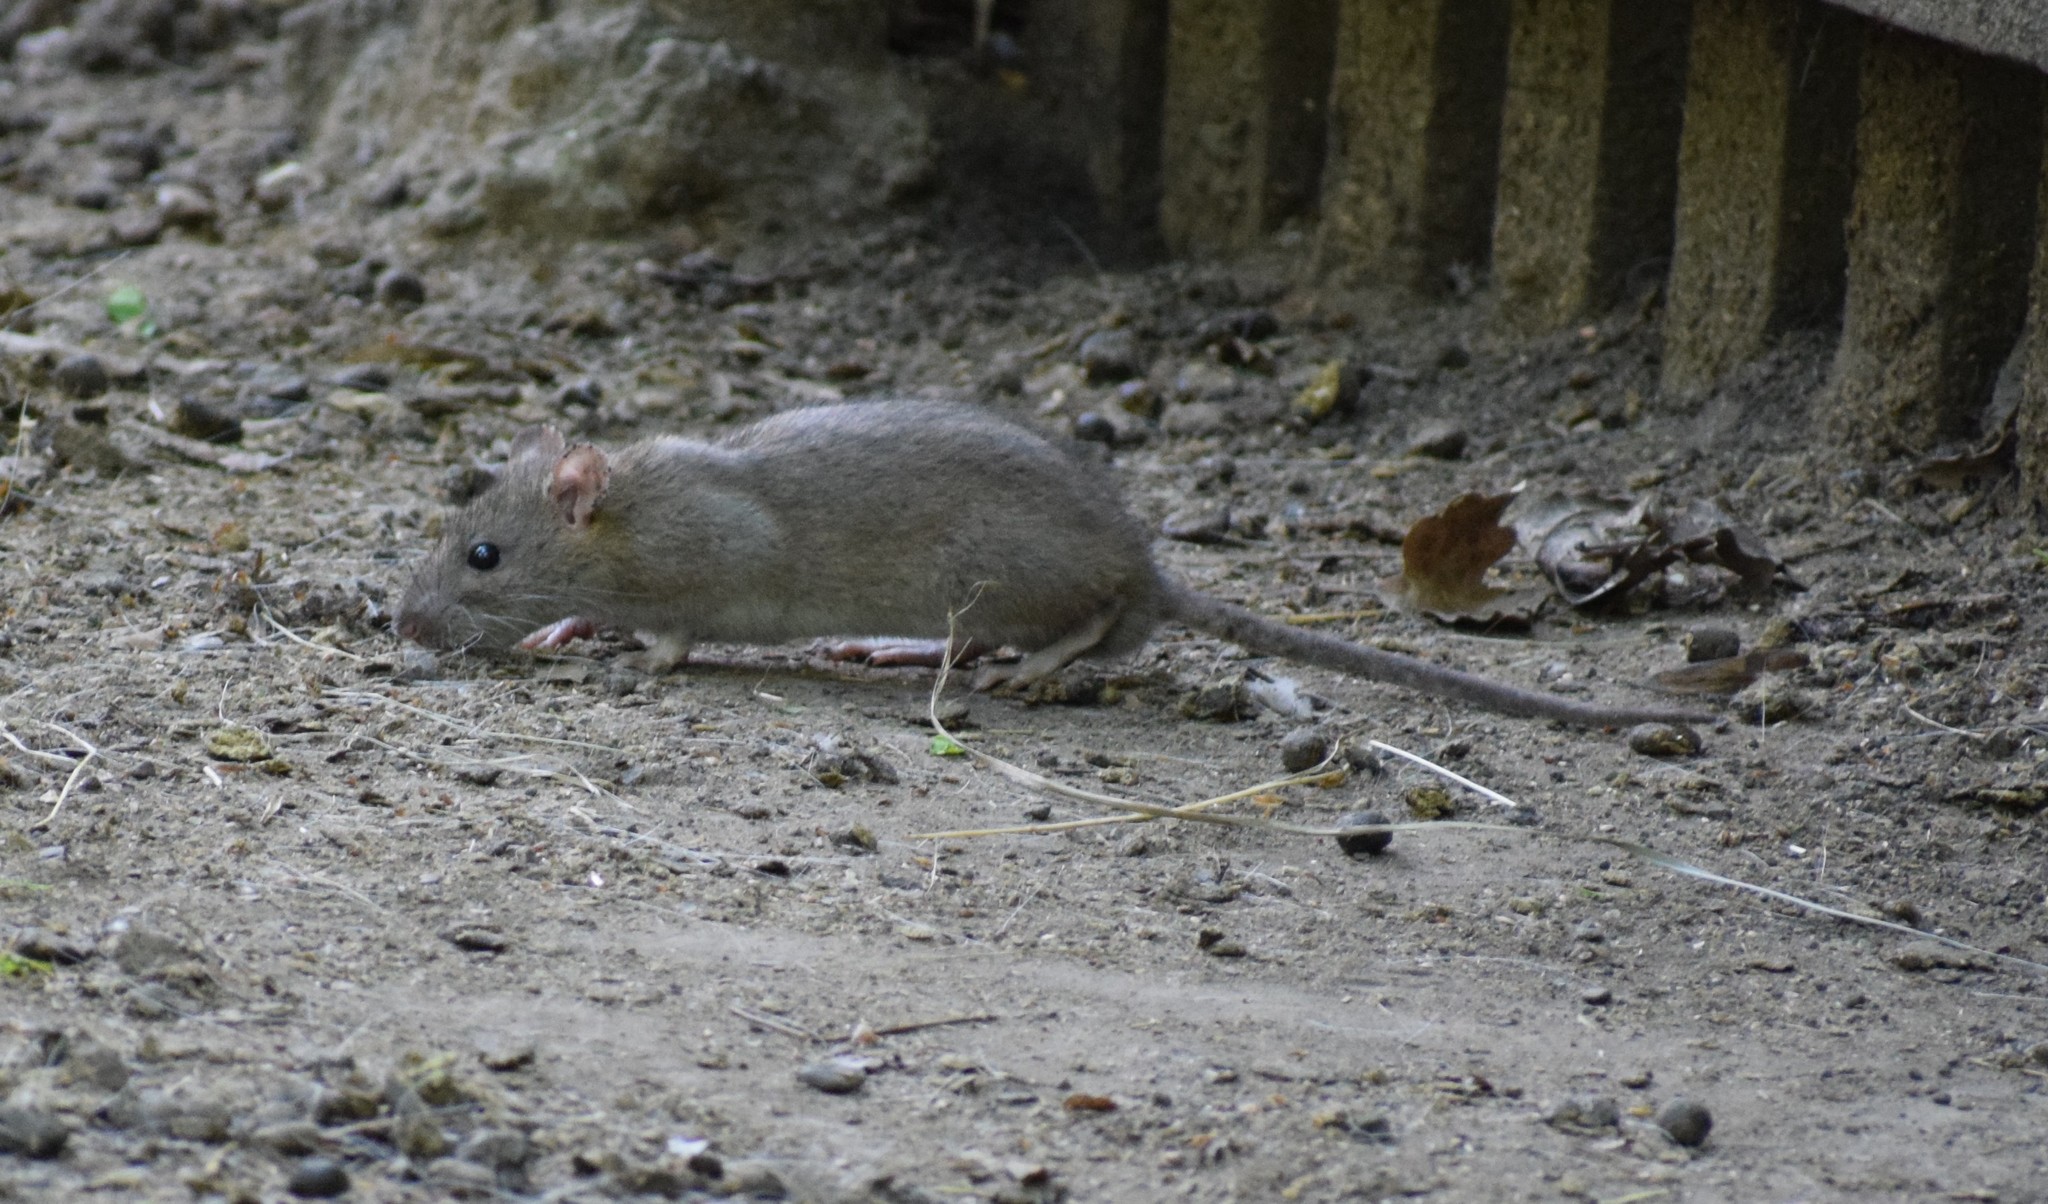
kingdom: Animalia
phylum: Chordata
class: Mammalia
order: Rodentia
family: Muridae
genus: Rattus
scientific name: Rattus norvegicus
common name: Brown rat
